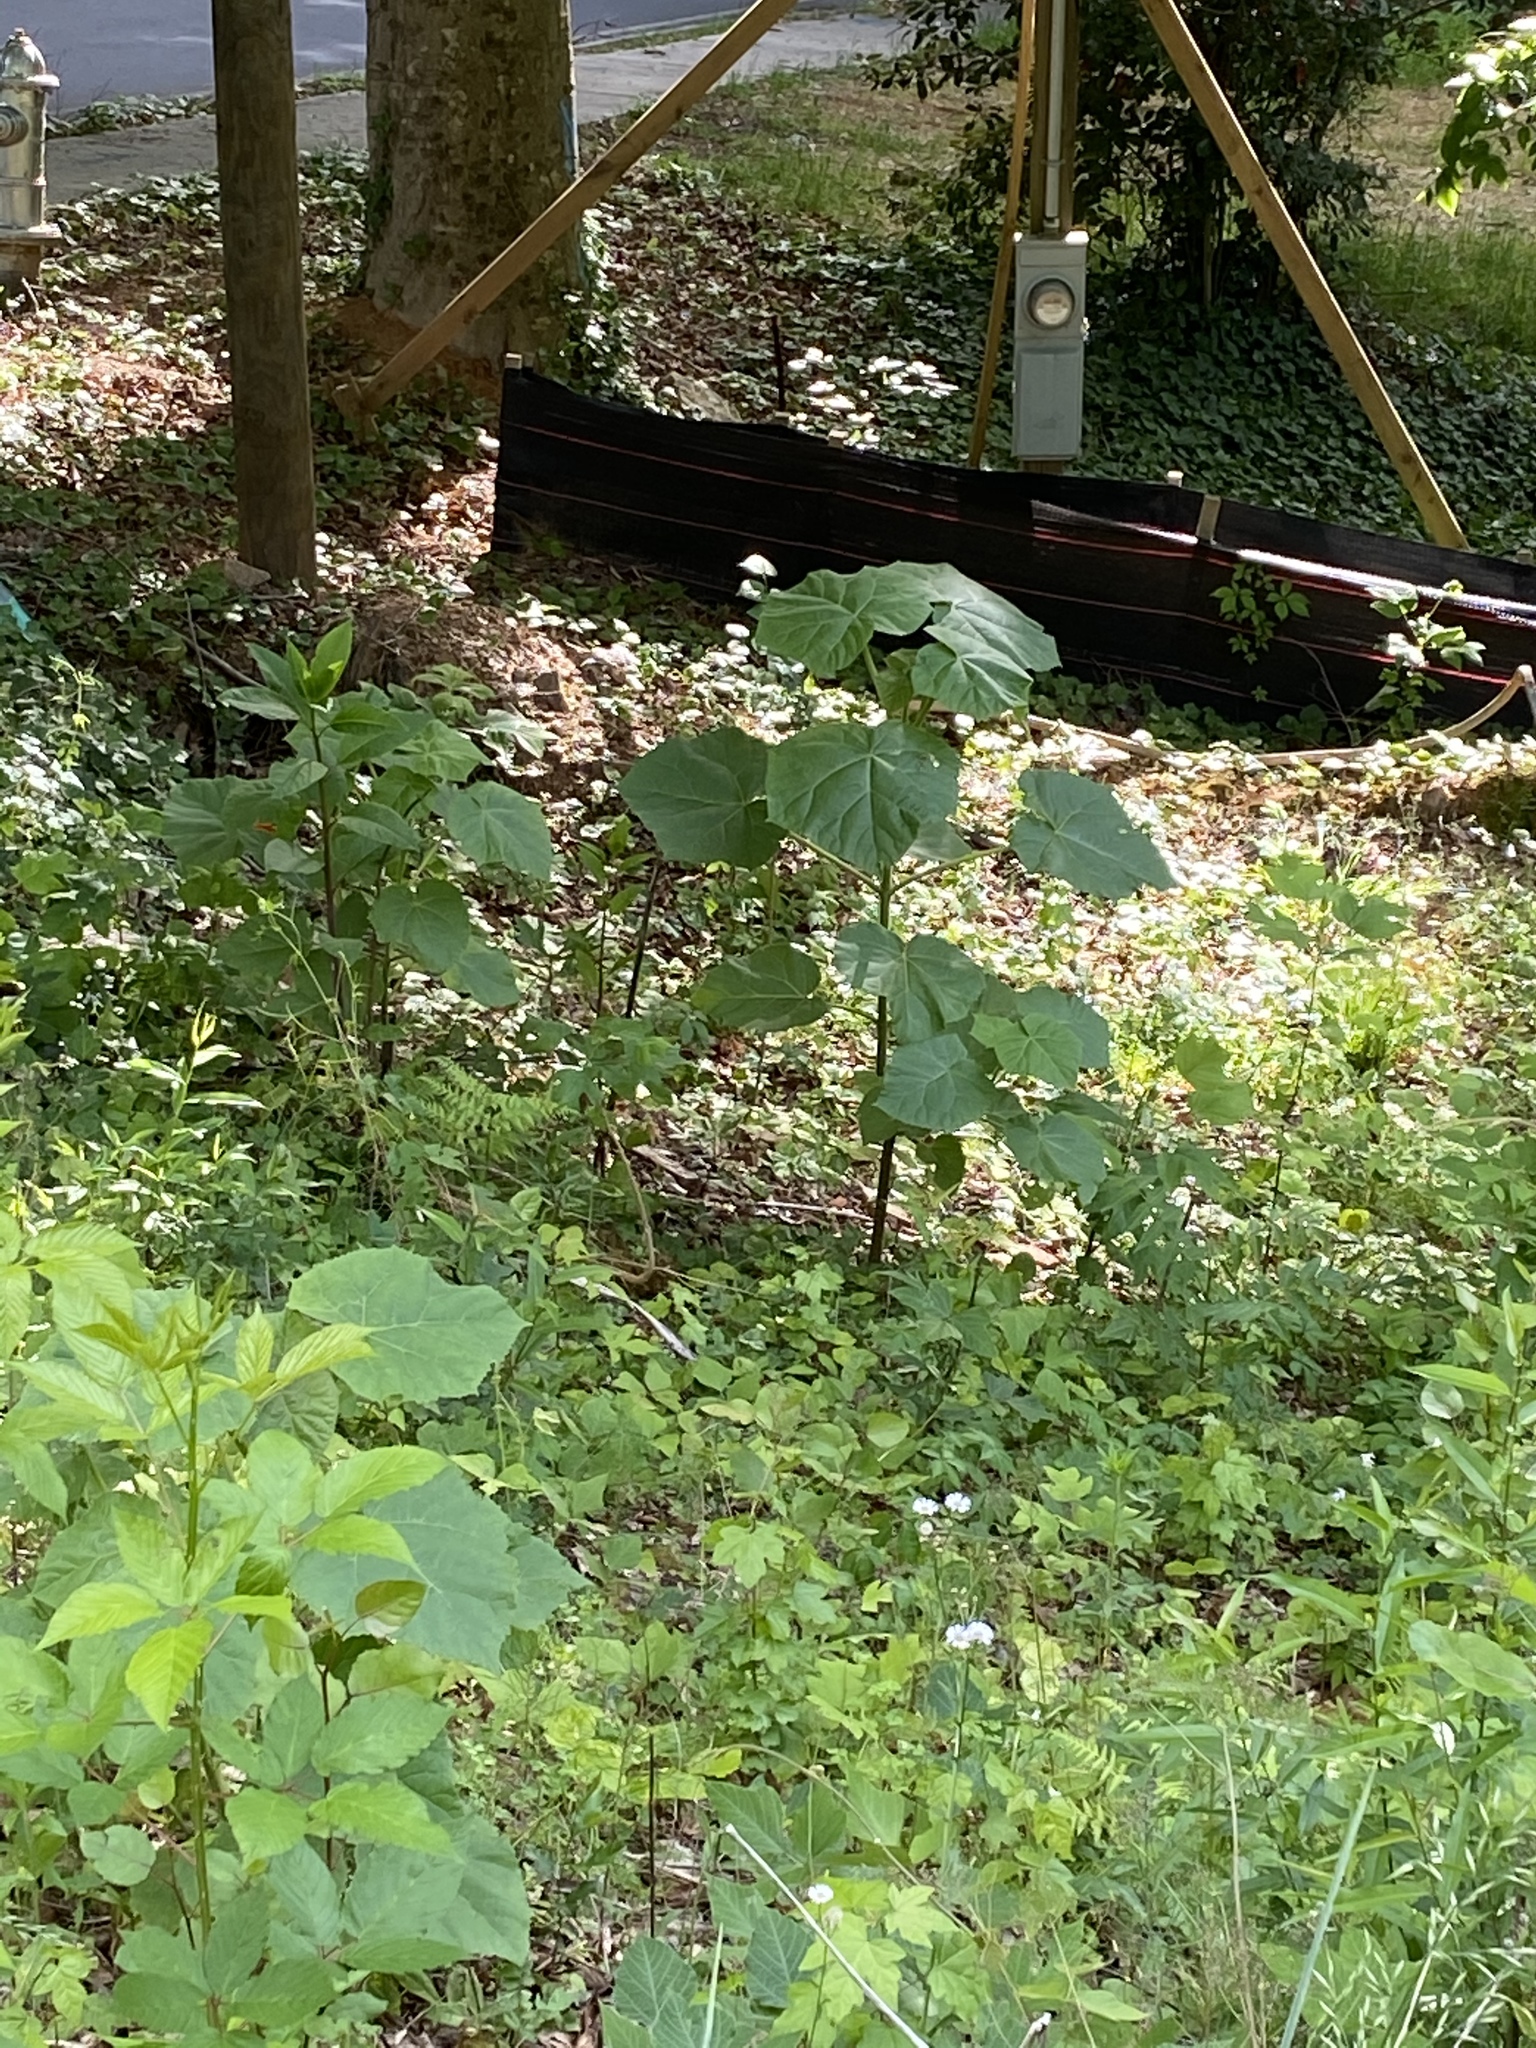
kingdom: Plantae
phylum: Tracheophyta
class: Magnoliopsida
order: Lamiales
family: Paulowniaceae
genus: Paulownia
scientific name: Paulownia tomentosa
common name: Foxglove-tree
